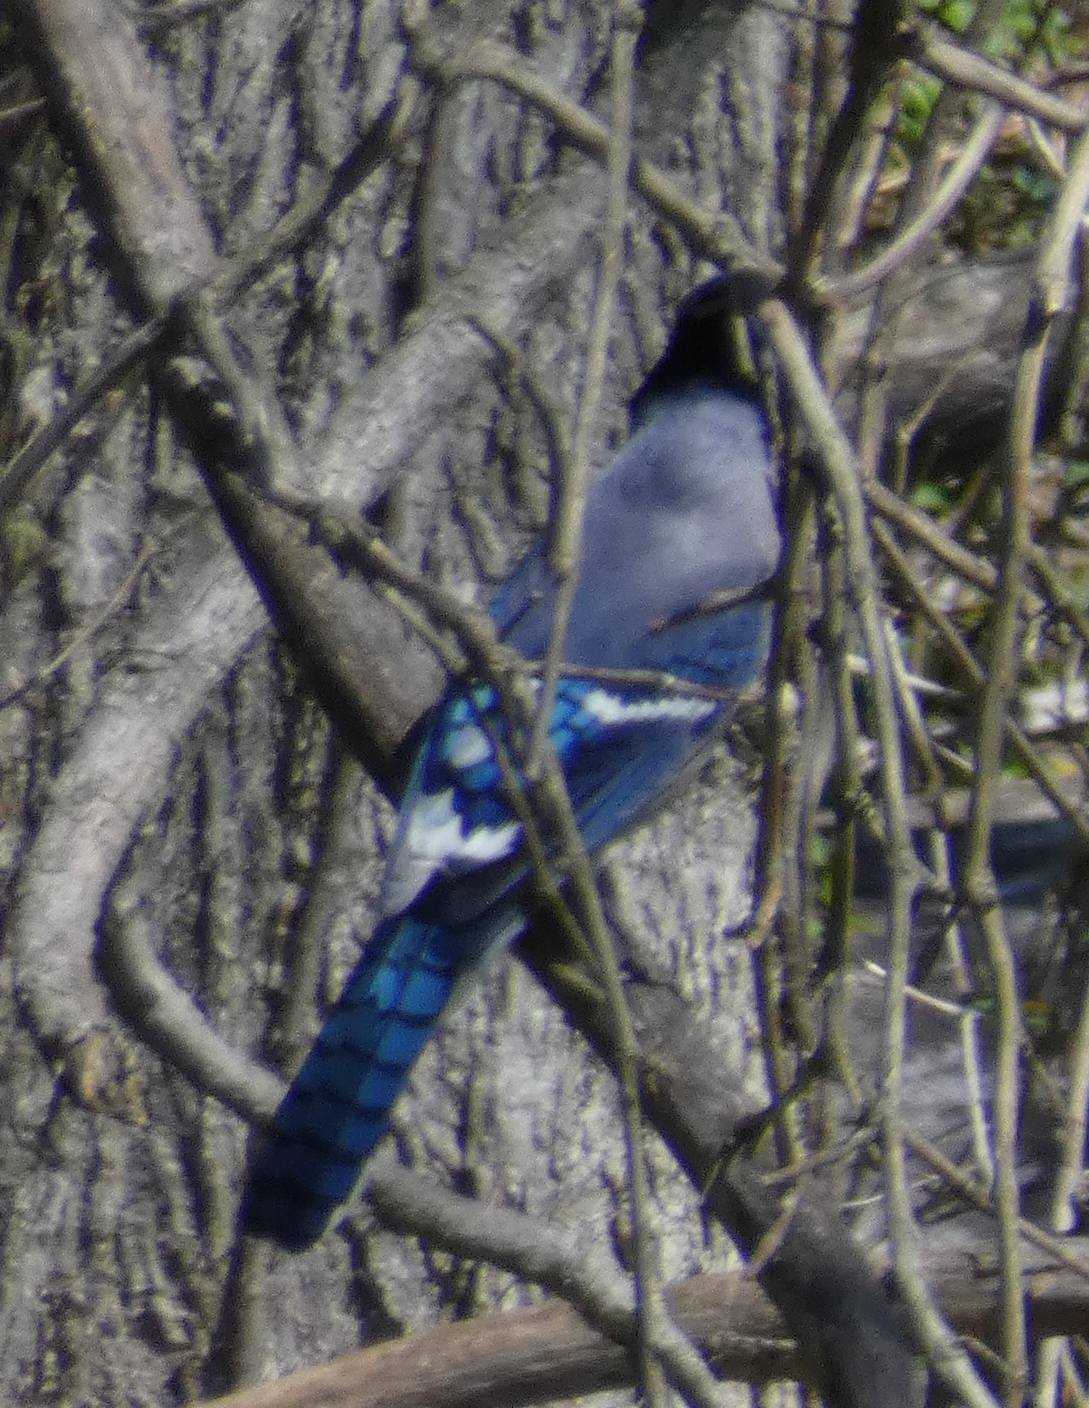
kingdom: Animalia
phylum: Chordata
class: Aves
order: Passeriformes
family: Corvidae
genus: Cyanocitta
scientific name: Cyanocitta cristata
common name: Blue jay
